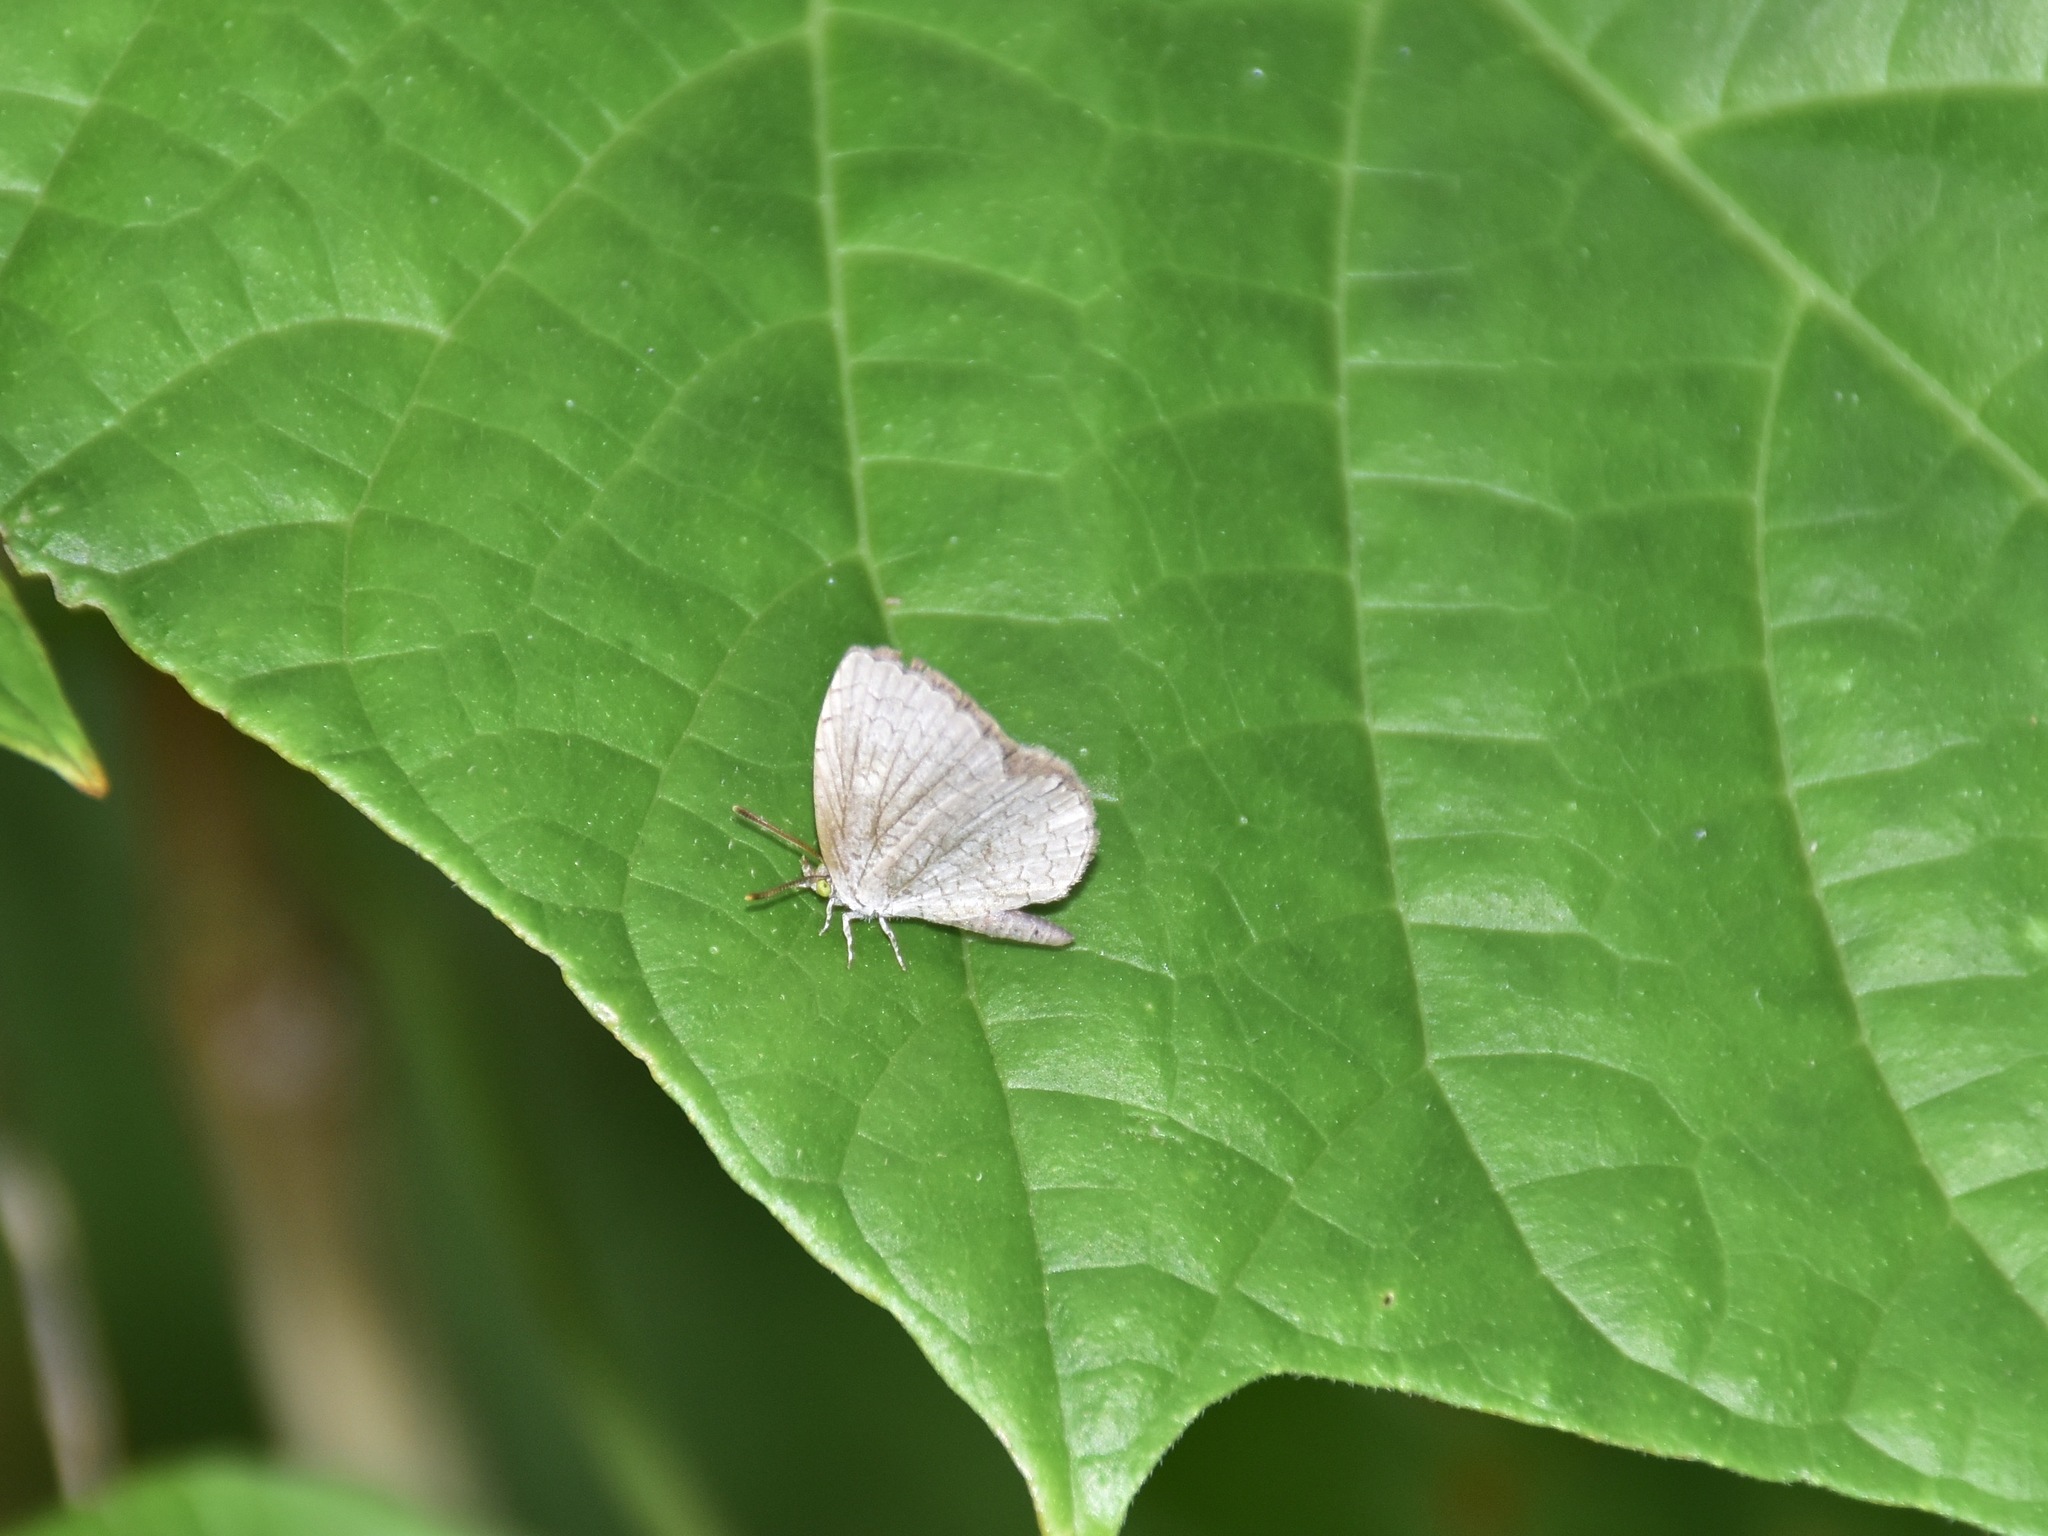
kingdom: Animalia
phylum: Arthropoda
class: Insecta
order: Lepidoptera
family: Lycaenidae
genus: Spalgis
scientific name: Spalgis epius
